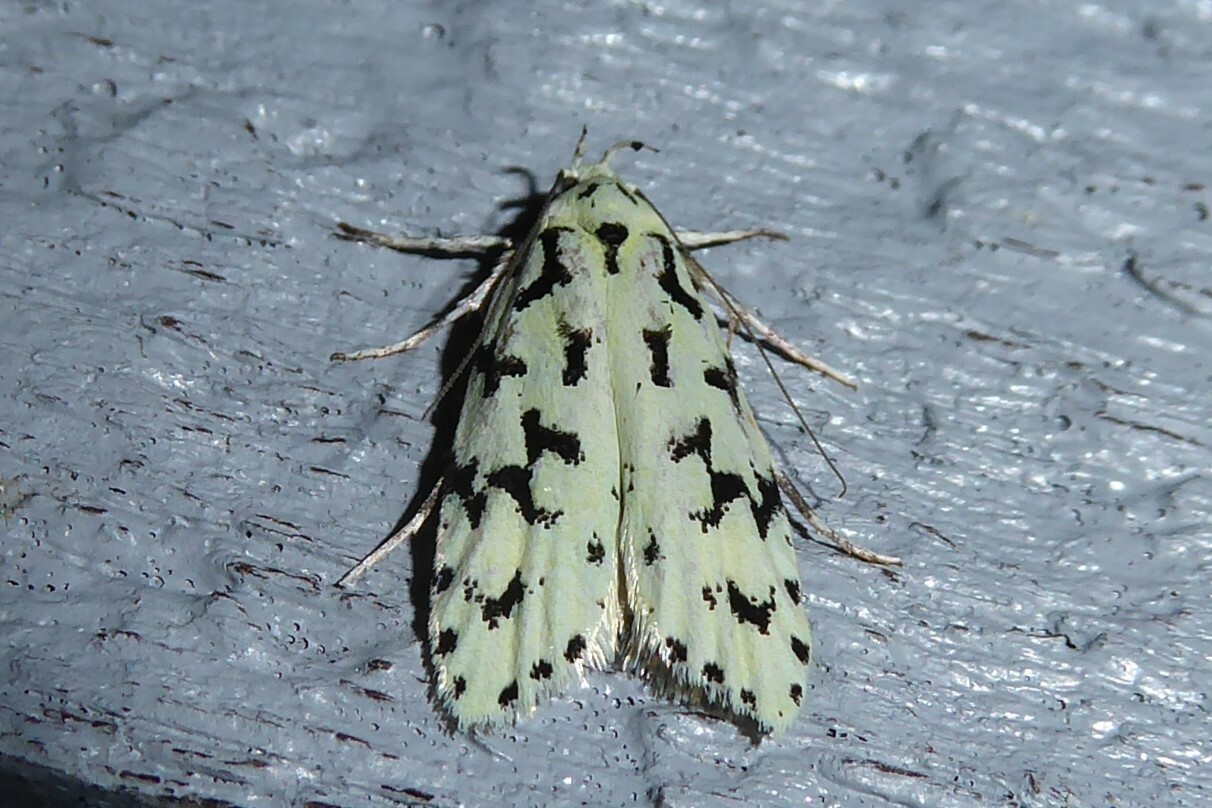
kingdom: Animalia
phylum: Arthropoda
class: Insecta
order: Lepidoptera
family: Oecophoridae
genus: Izatha
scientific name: Izatha huttoni
